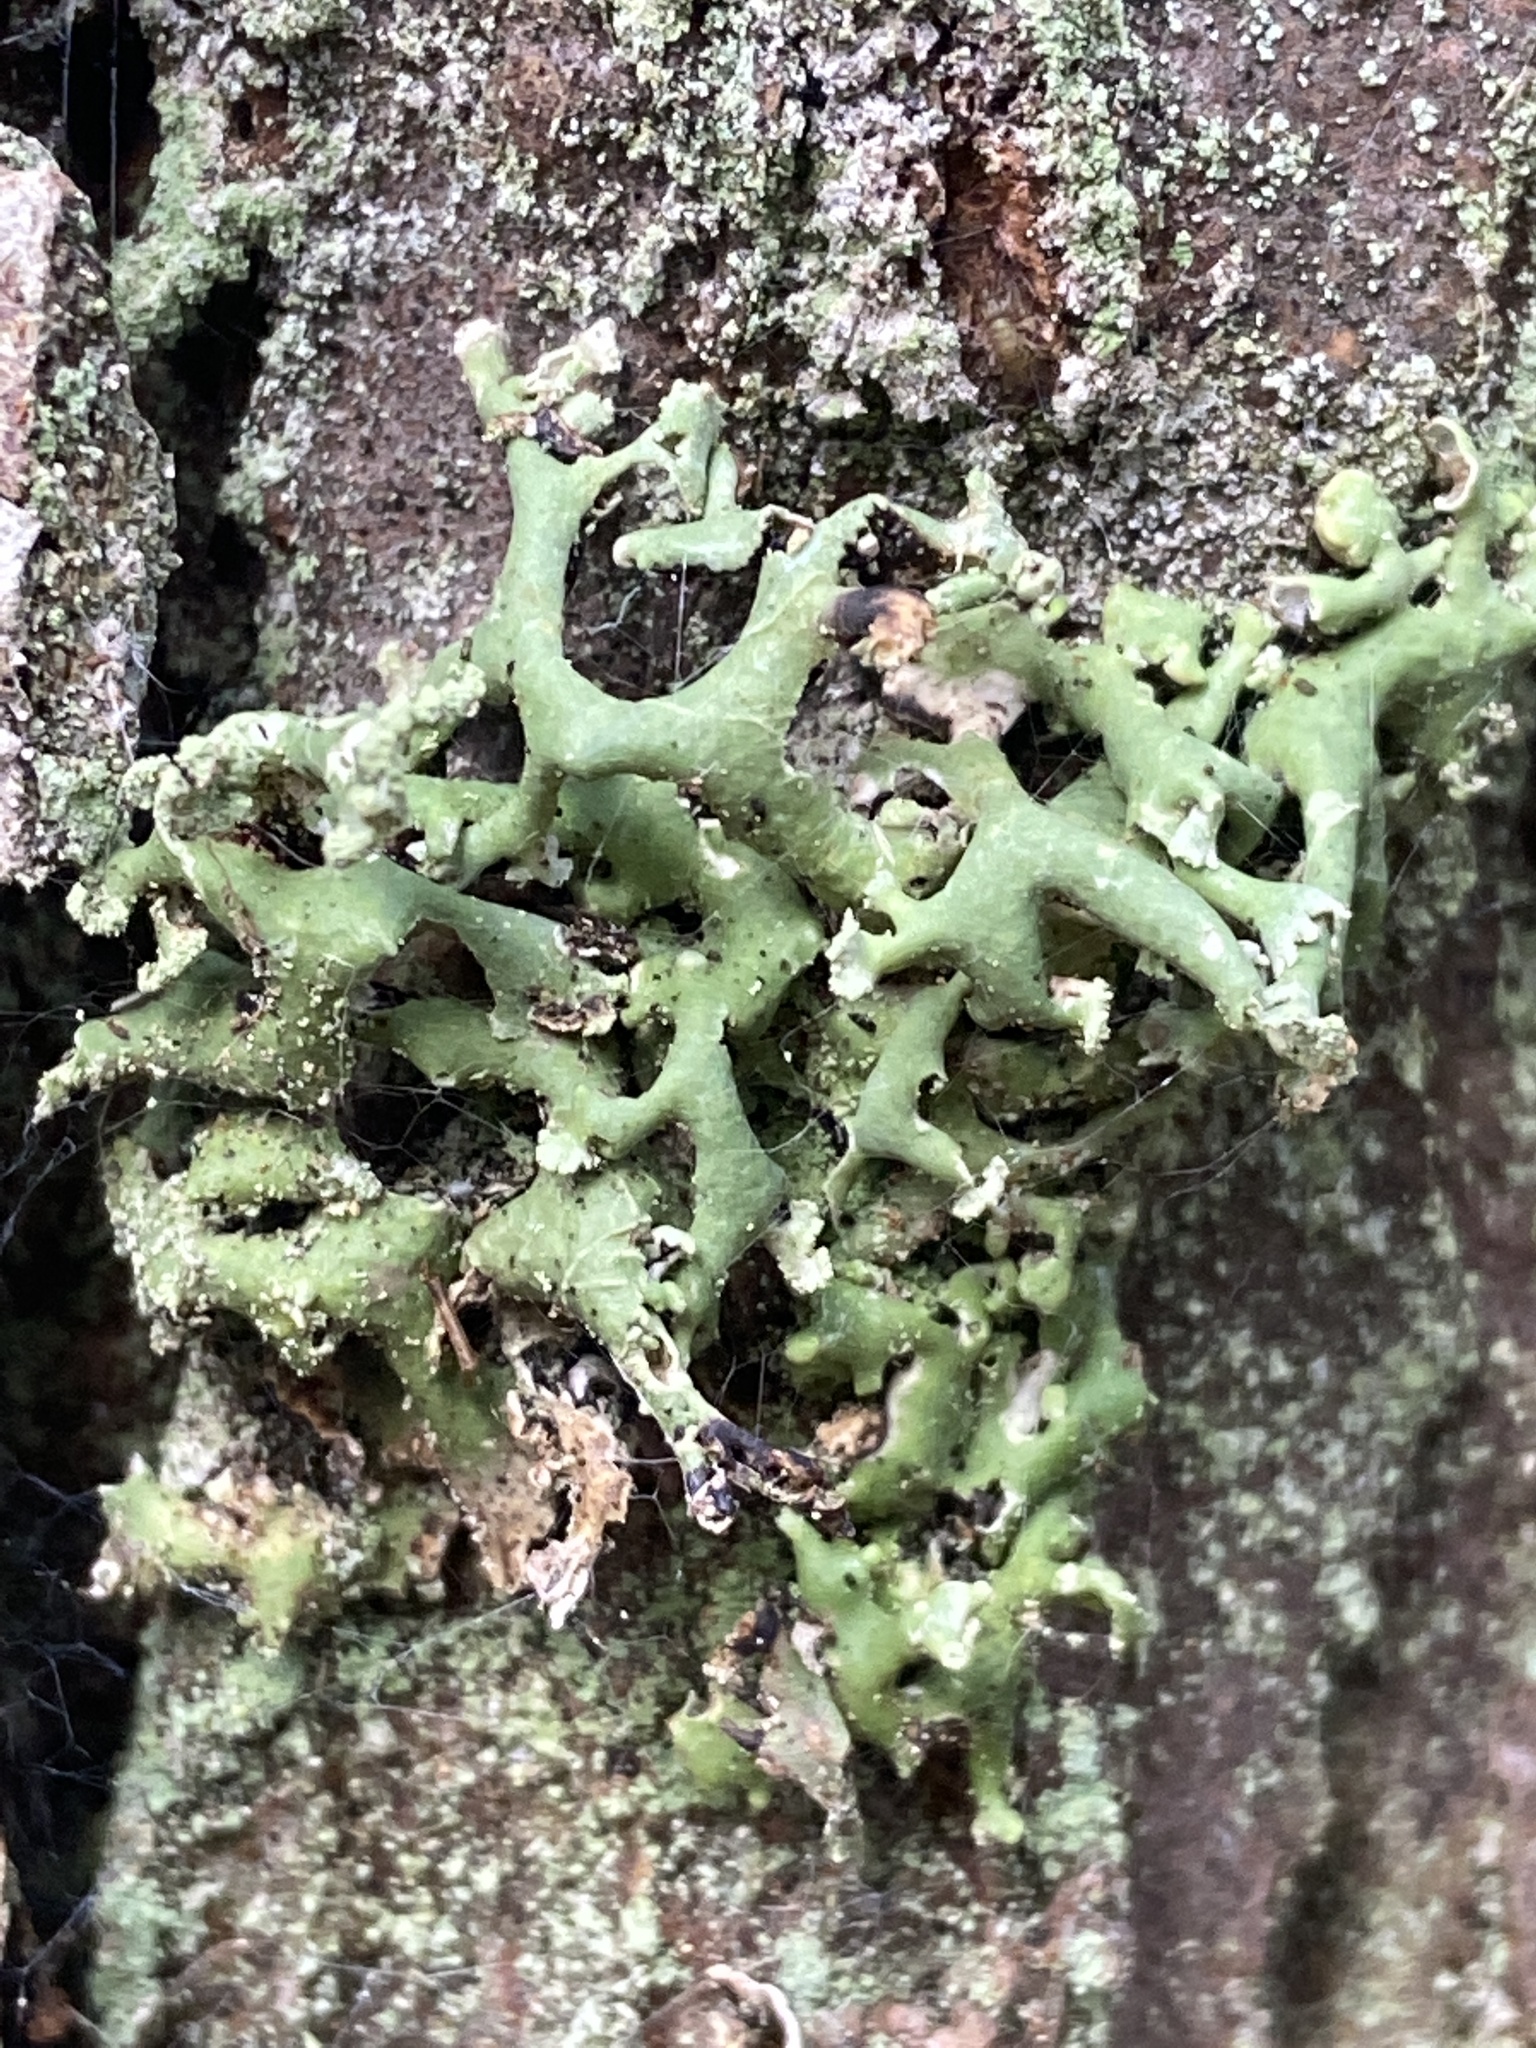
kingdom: Fungi
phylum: Ascomycota
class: Lecanoromycetes
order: Lecanorales
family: Parmeliaceae
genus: Hypogymnia
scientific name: Hypogymnia physodes
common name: Dark crottle
